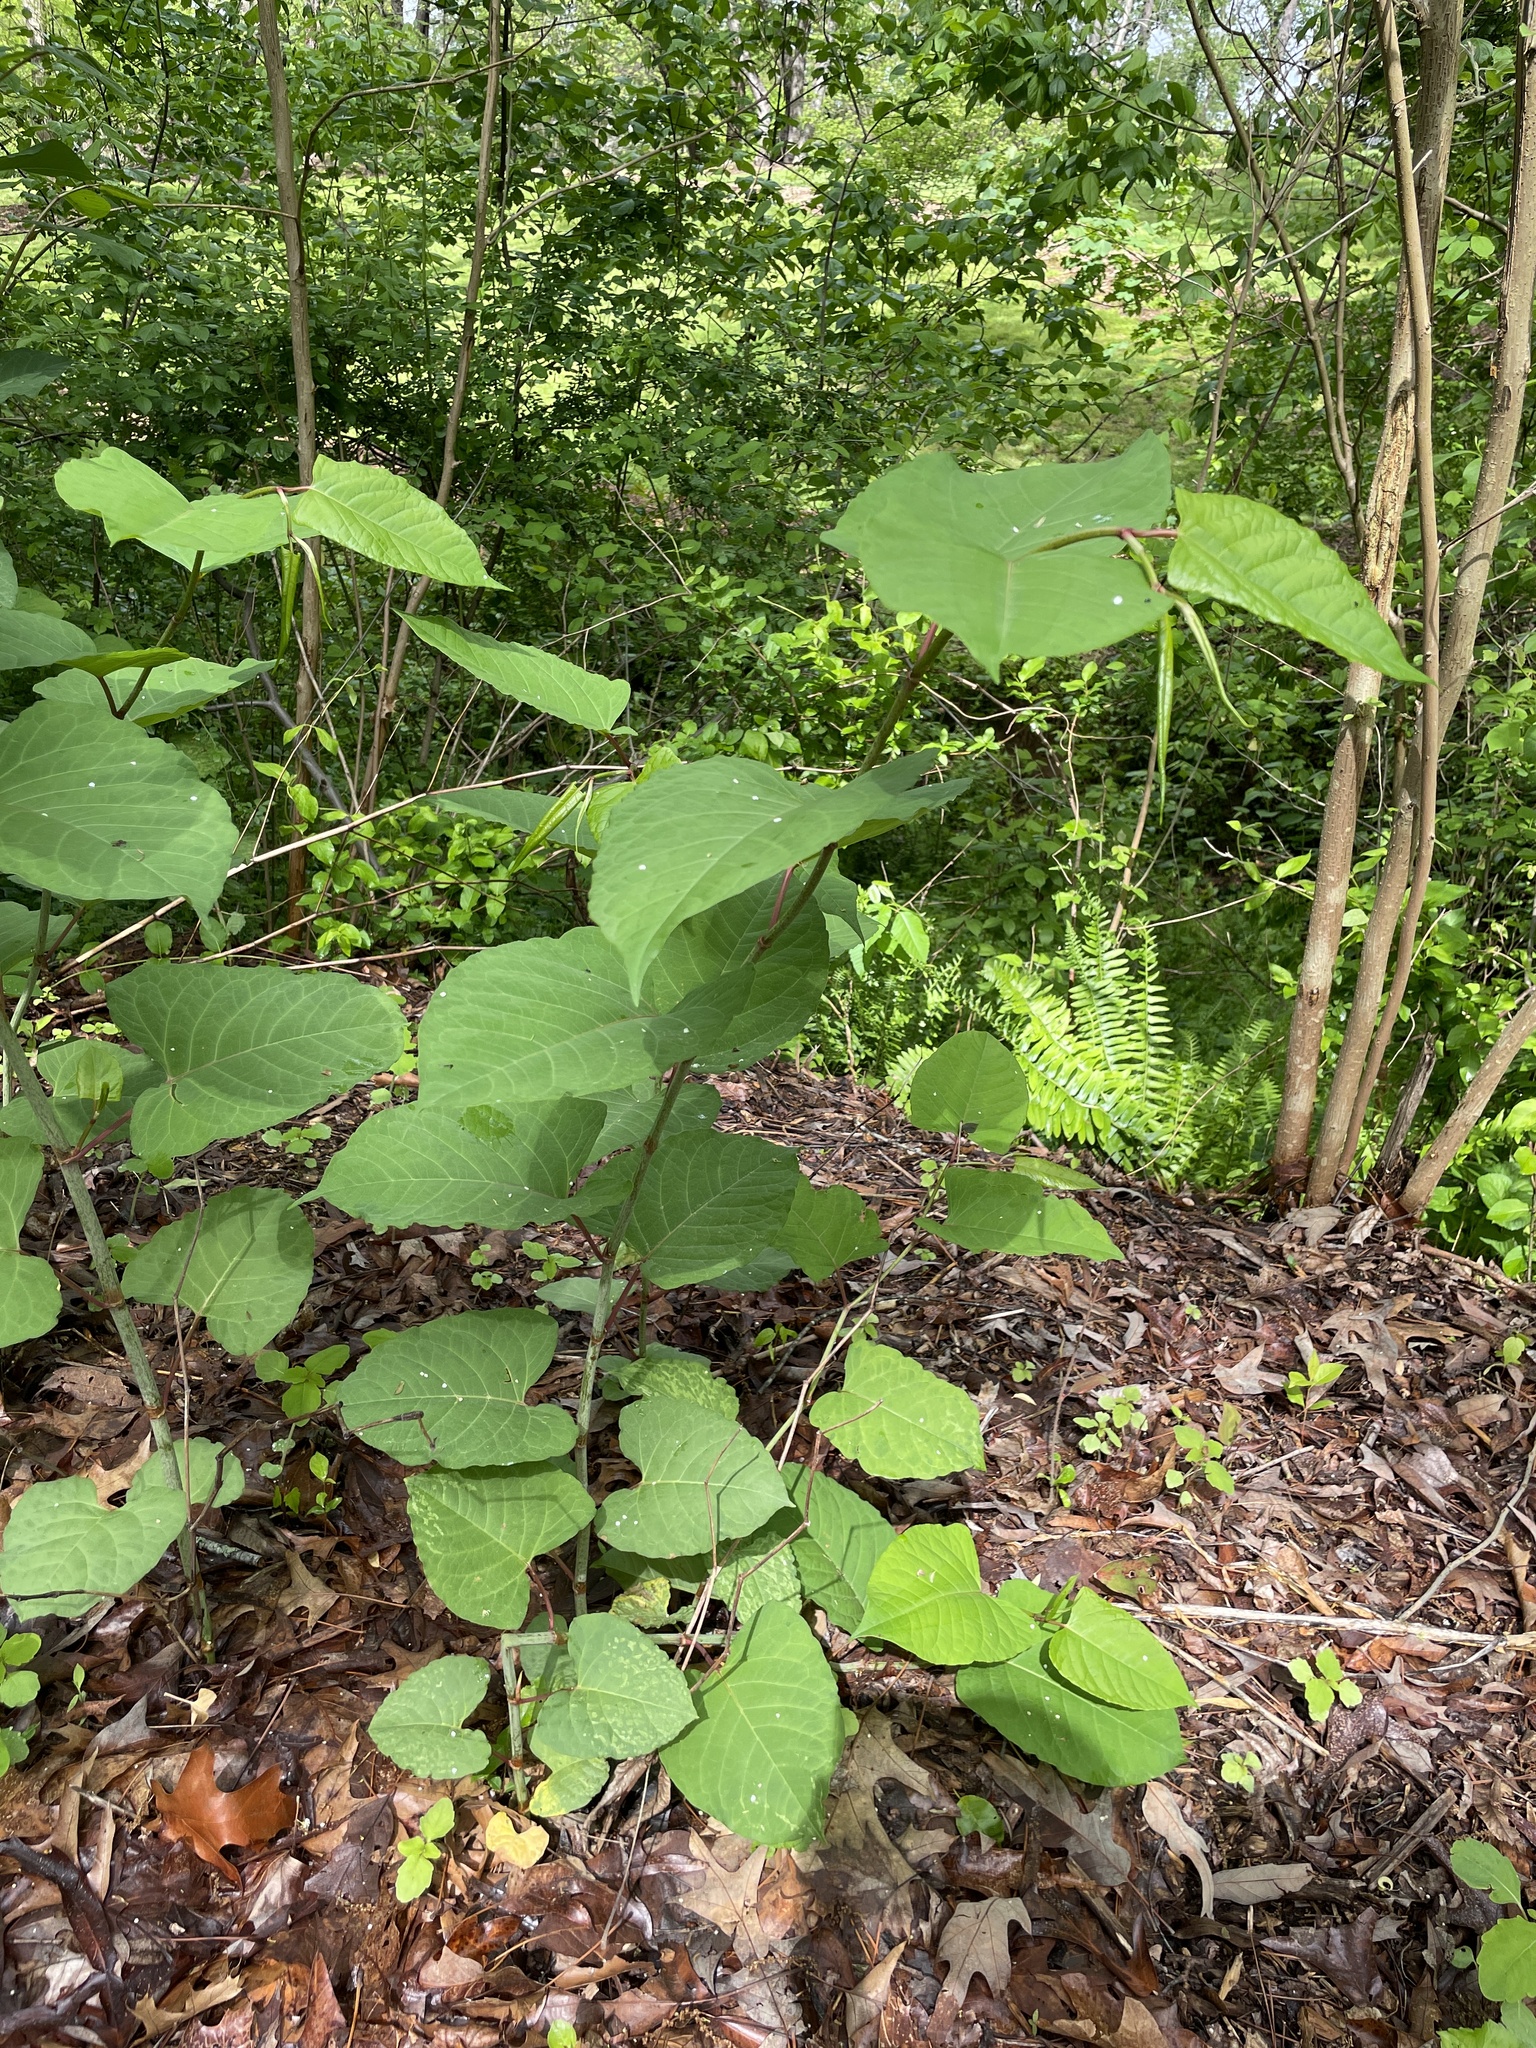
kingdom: Plantae
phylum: Tracheophyta
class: Magnoliopsida
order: Caryophyllales
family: Polygonaceae
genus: Reynoutria
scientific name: Reynoutria japonica
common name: Japanese knotweed
